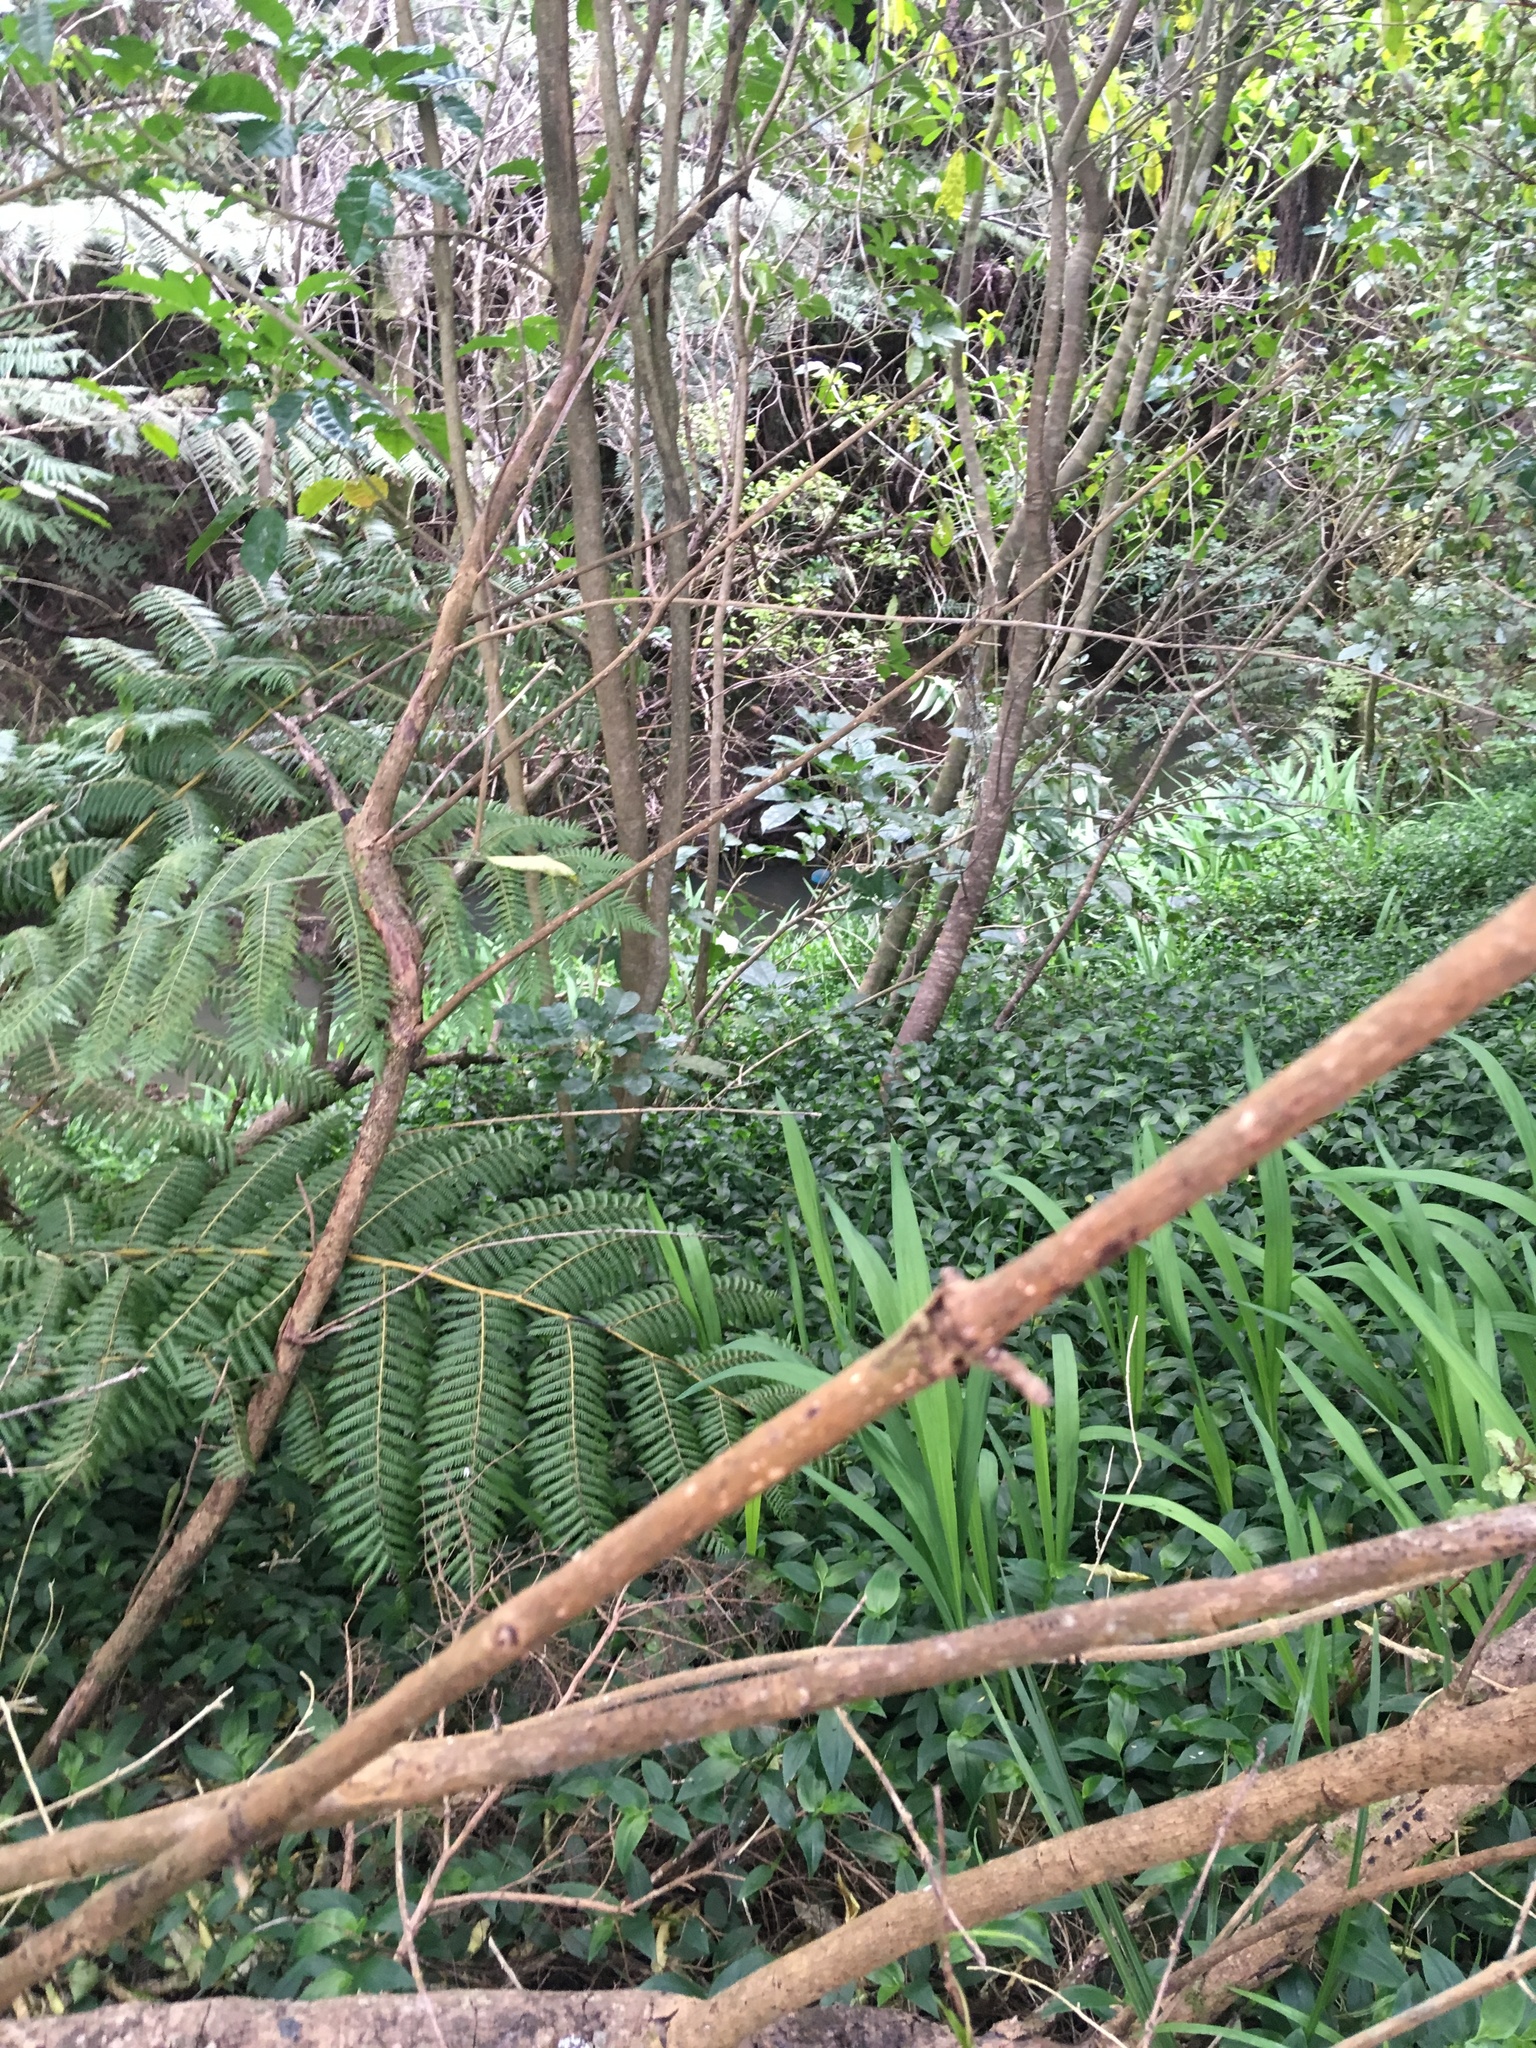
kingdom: Plantae
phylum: Tracheophyta
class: Liliopsida
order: Commelinales
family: Commelinaceae
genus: Tradescantia
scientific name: Tradescantia fluminensis
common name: Wandering-jew
